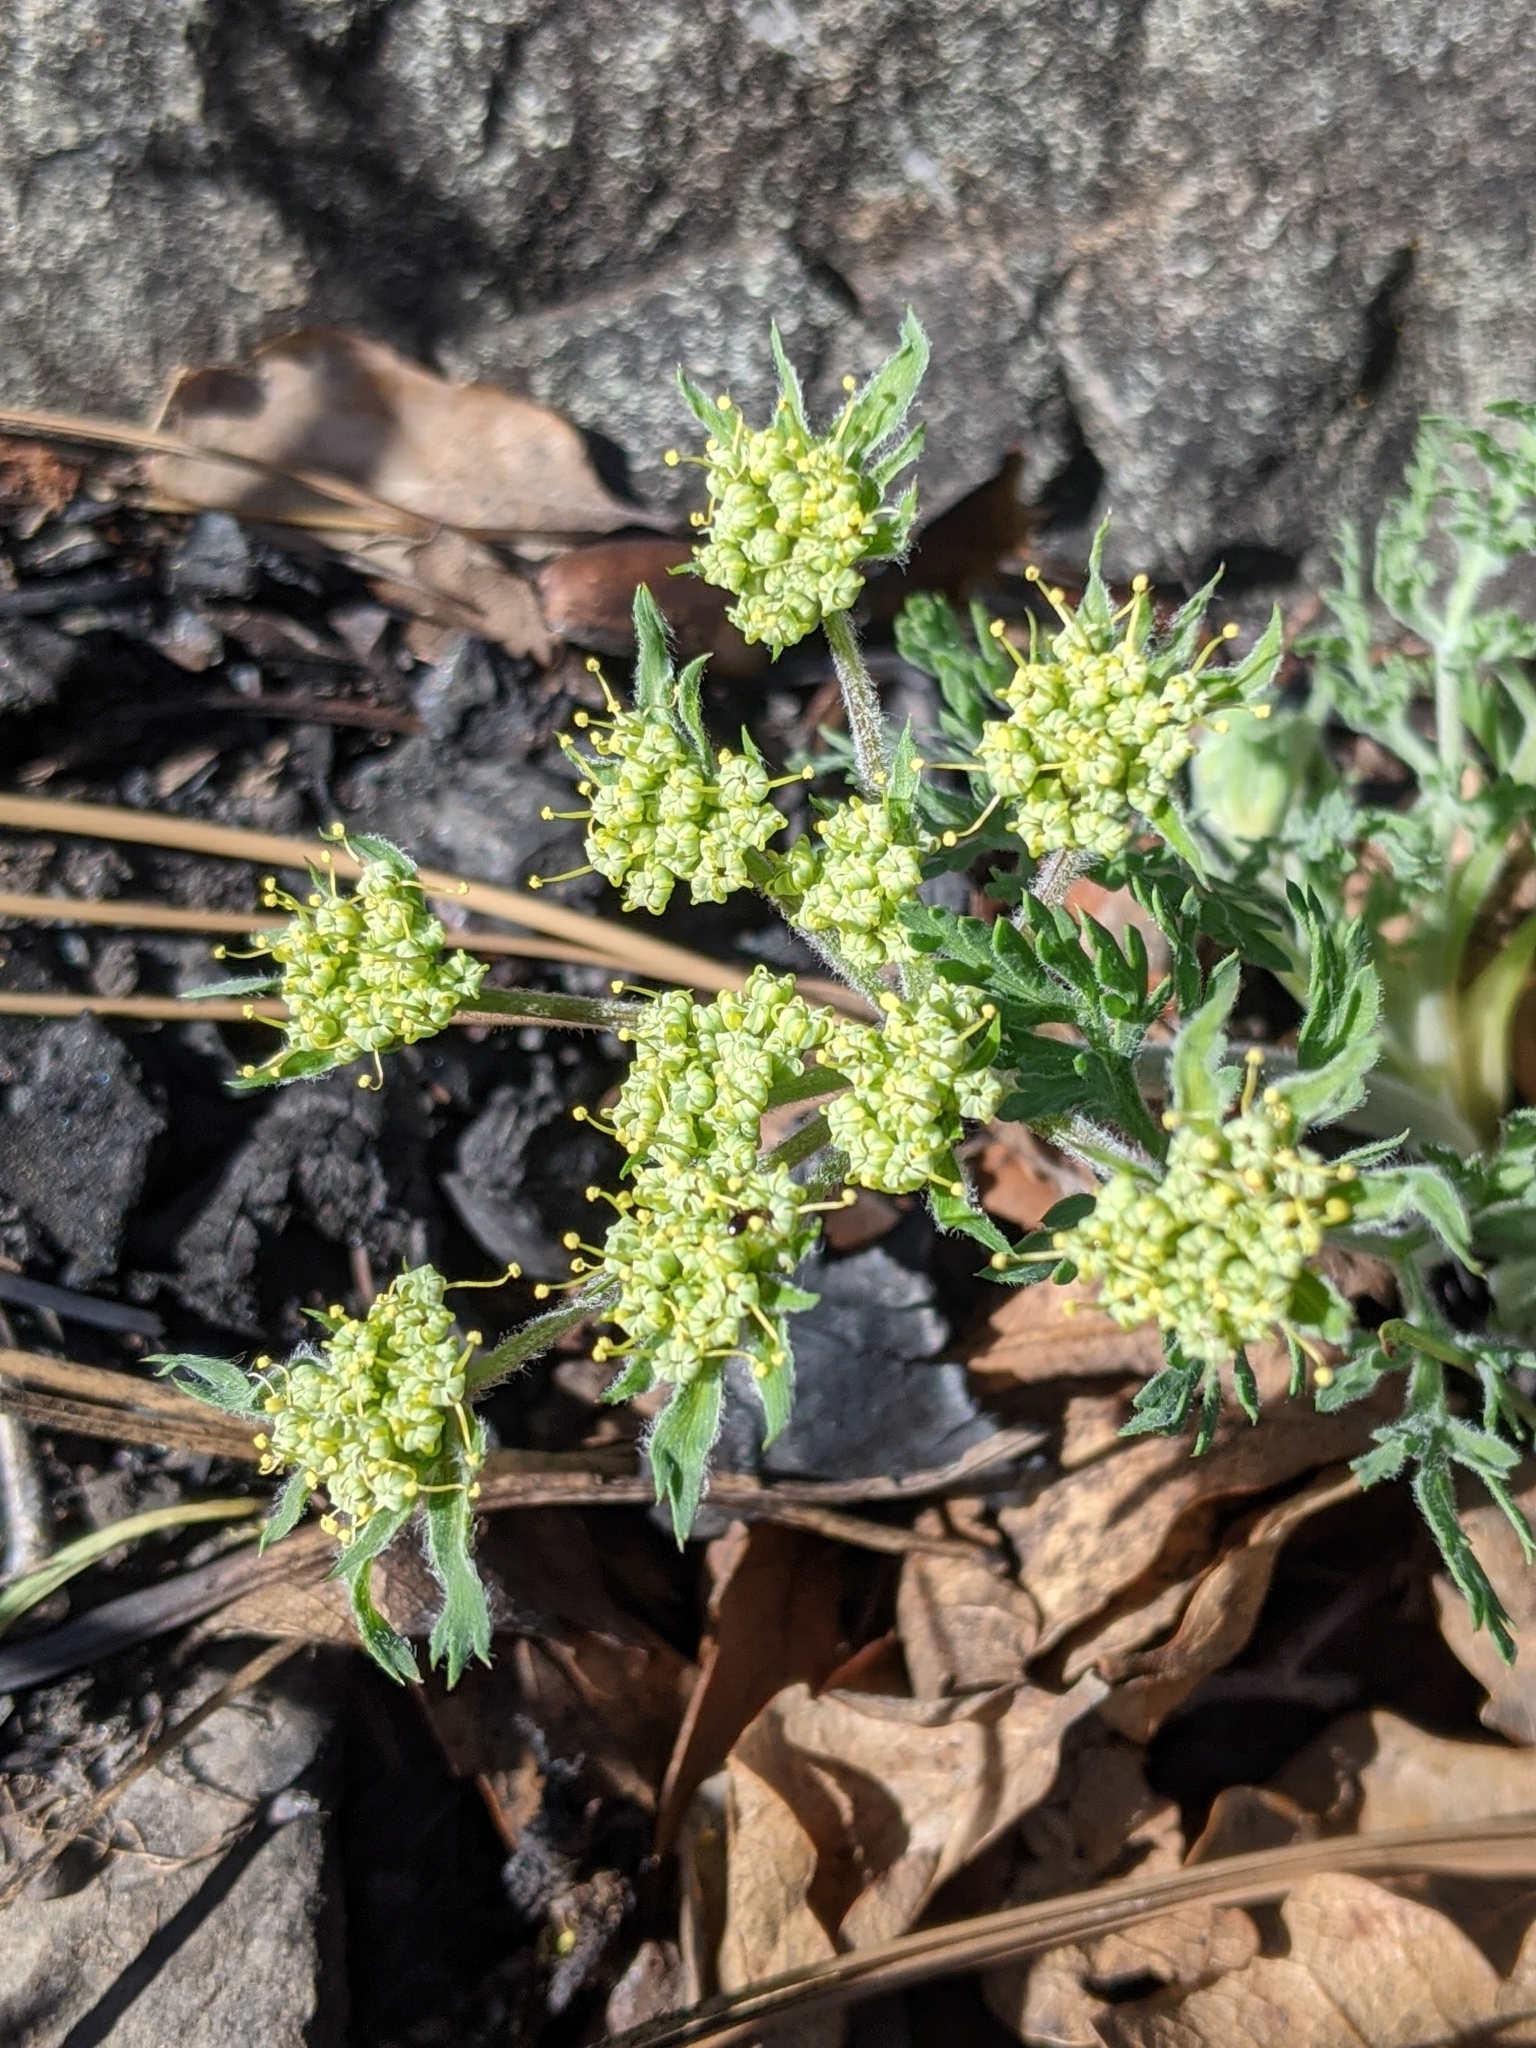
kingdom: Plantae
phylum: Tracheophyta
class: Magnoliopsida
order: Apiales
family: Apiaceae
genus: Lomatium
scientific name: Lomatium macrocarpum
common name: Big-seed biscuitroot
